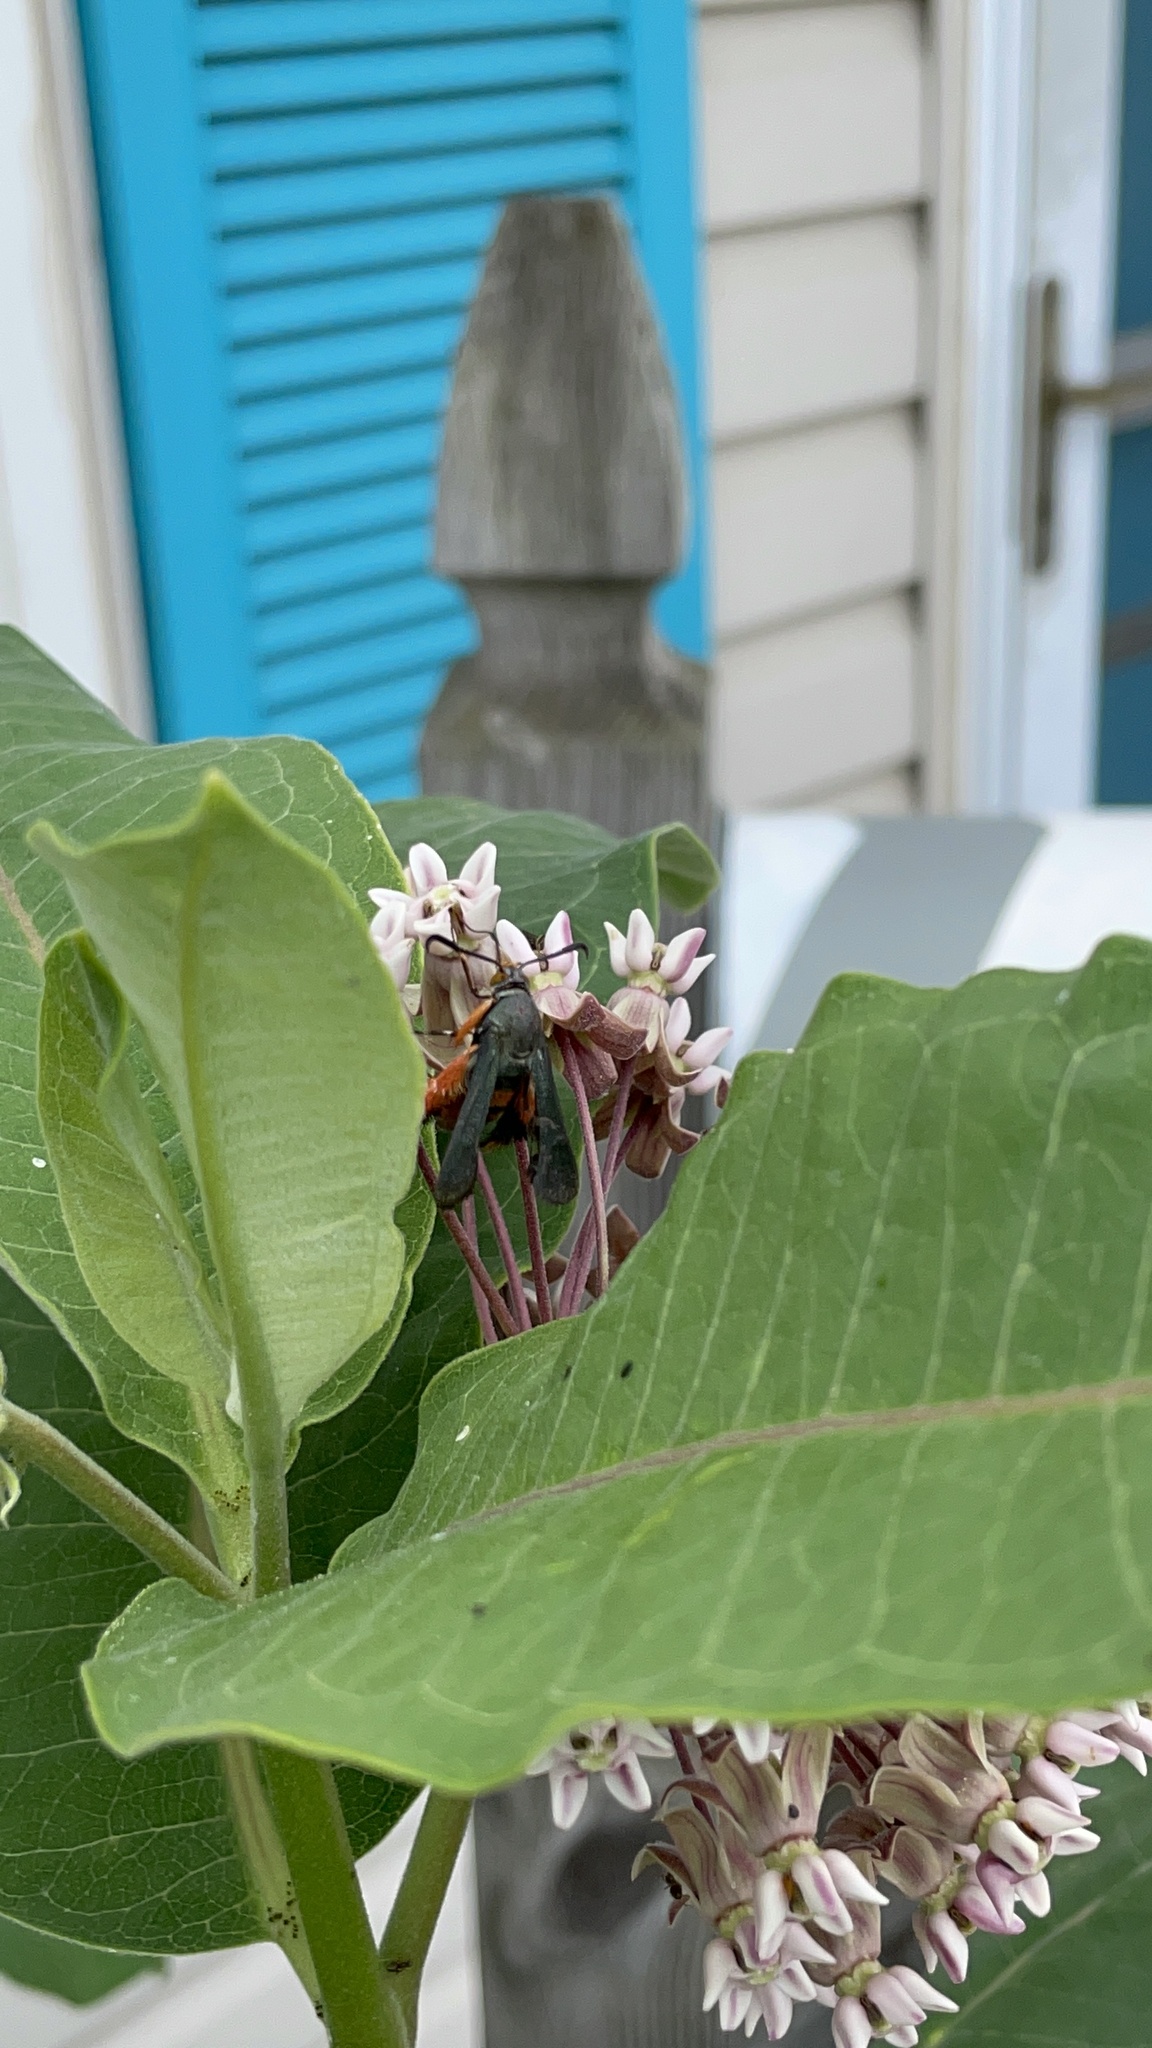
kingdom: Animalia
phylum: Arthropoda
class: Insecta
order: Lepidoptera
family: Sesiidae
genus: Eichlinia
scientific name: Eichlinia cucurbitae
